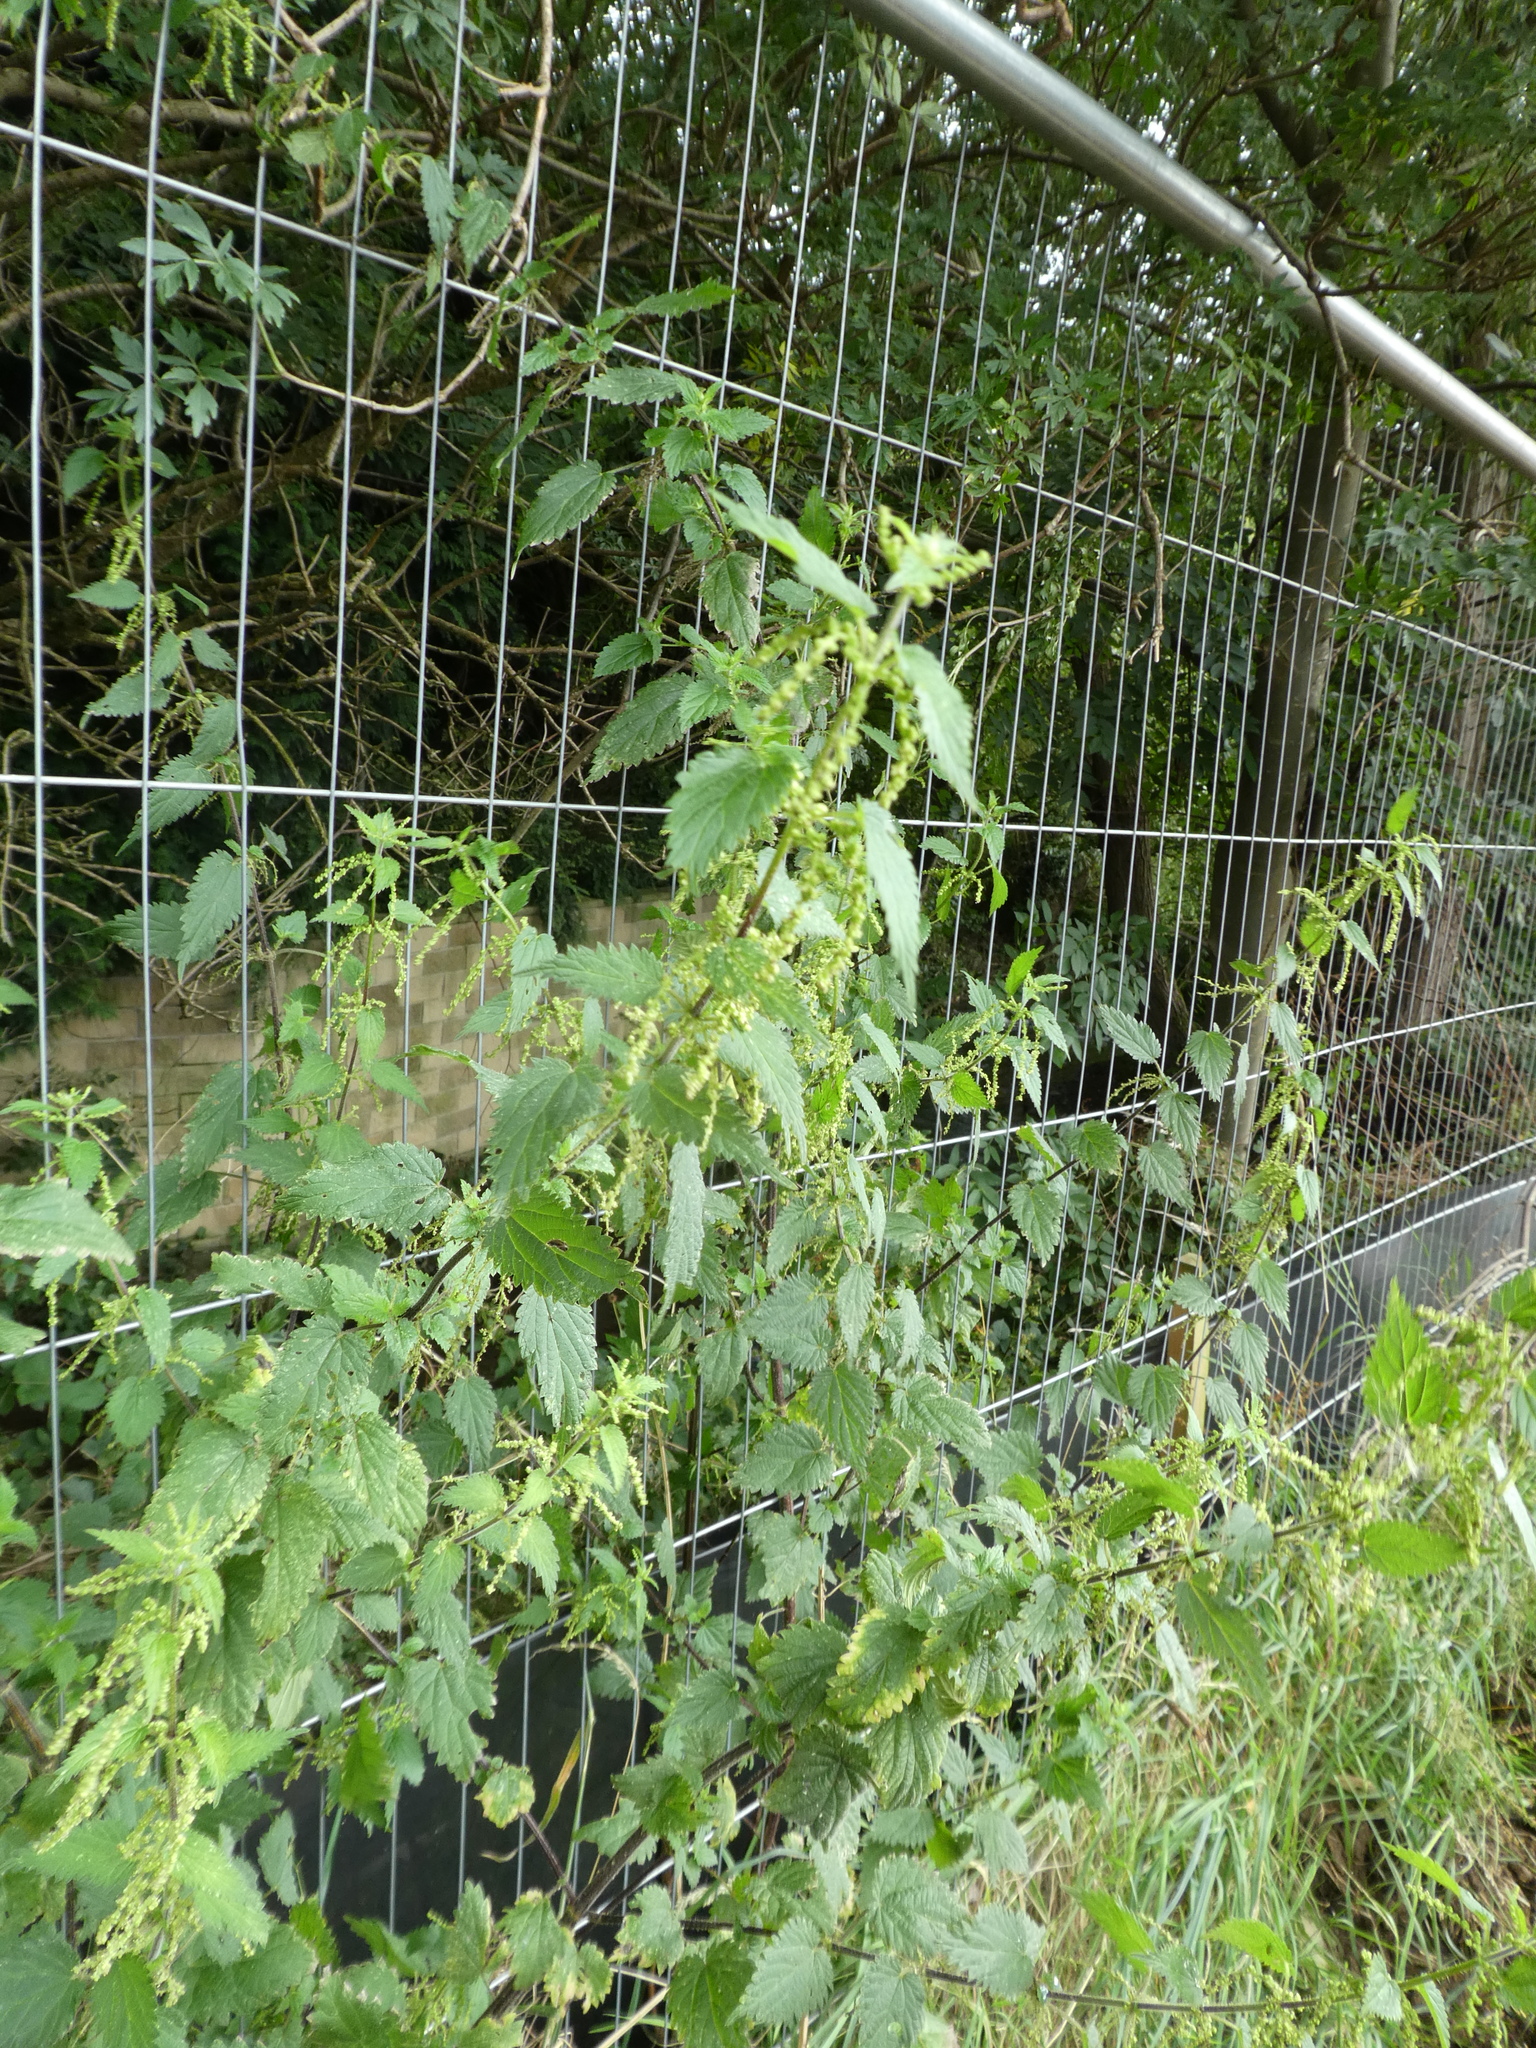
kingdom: Plantae
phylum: Tracheophyta
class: Magnoliopsida
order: Rosales
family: Urticaceae
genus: Urtica
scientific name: Urtica dioica
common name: Common nettle
